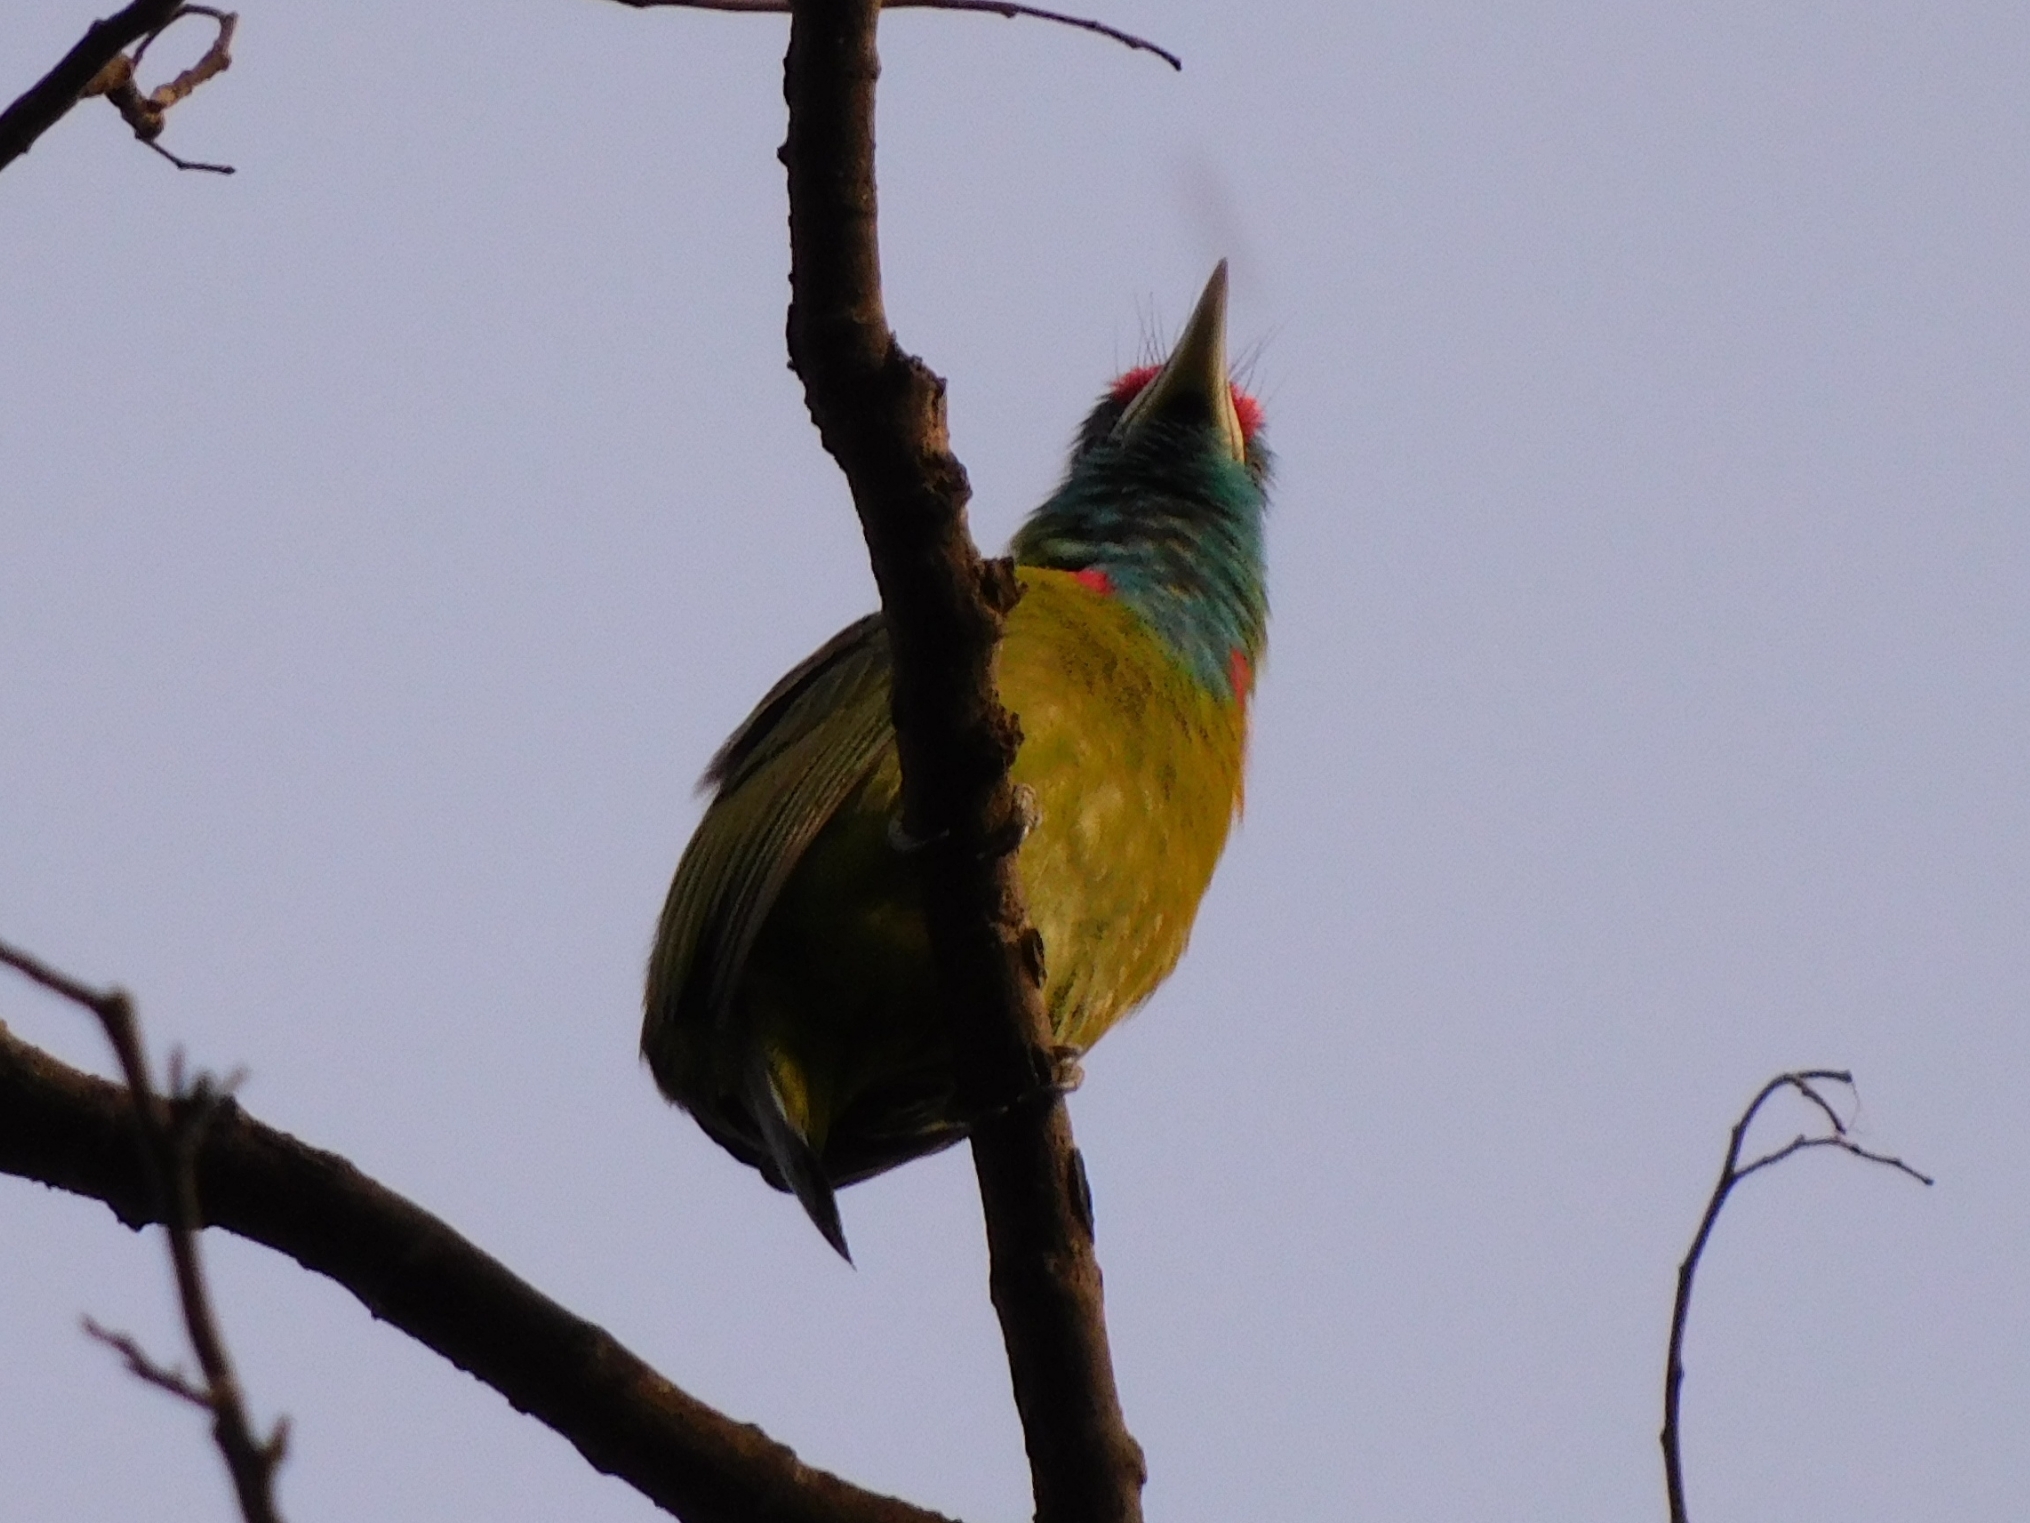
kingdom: Animalia
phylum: Chordata
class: Aves
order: Piciformes
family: Megalaimidae
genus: Psilopogon
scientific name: Psilopogon asiaticus
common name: Blue-throated barbet
